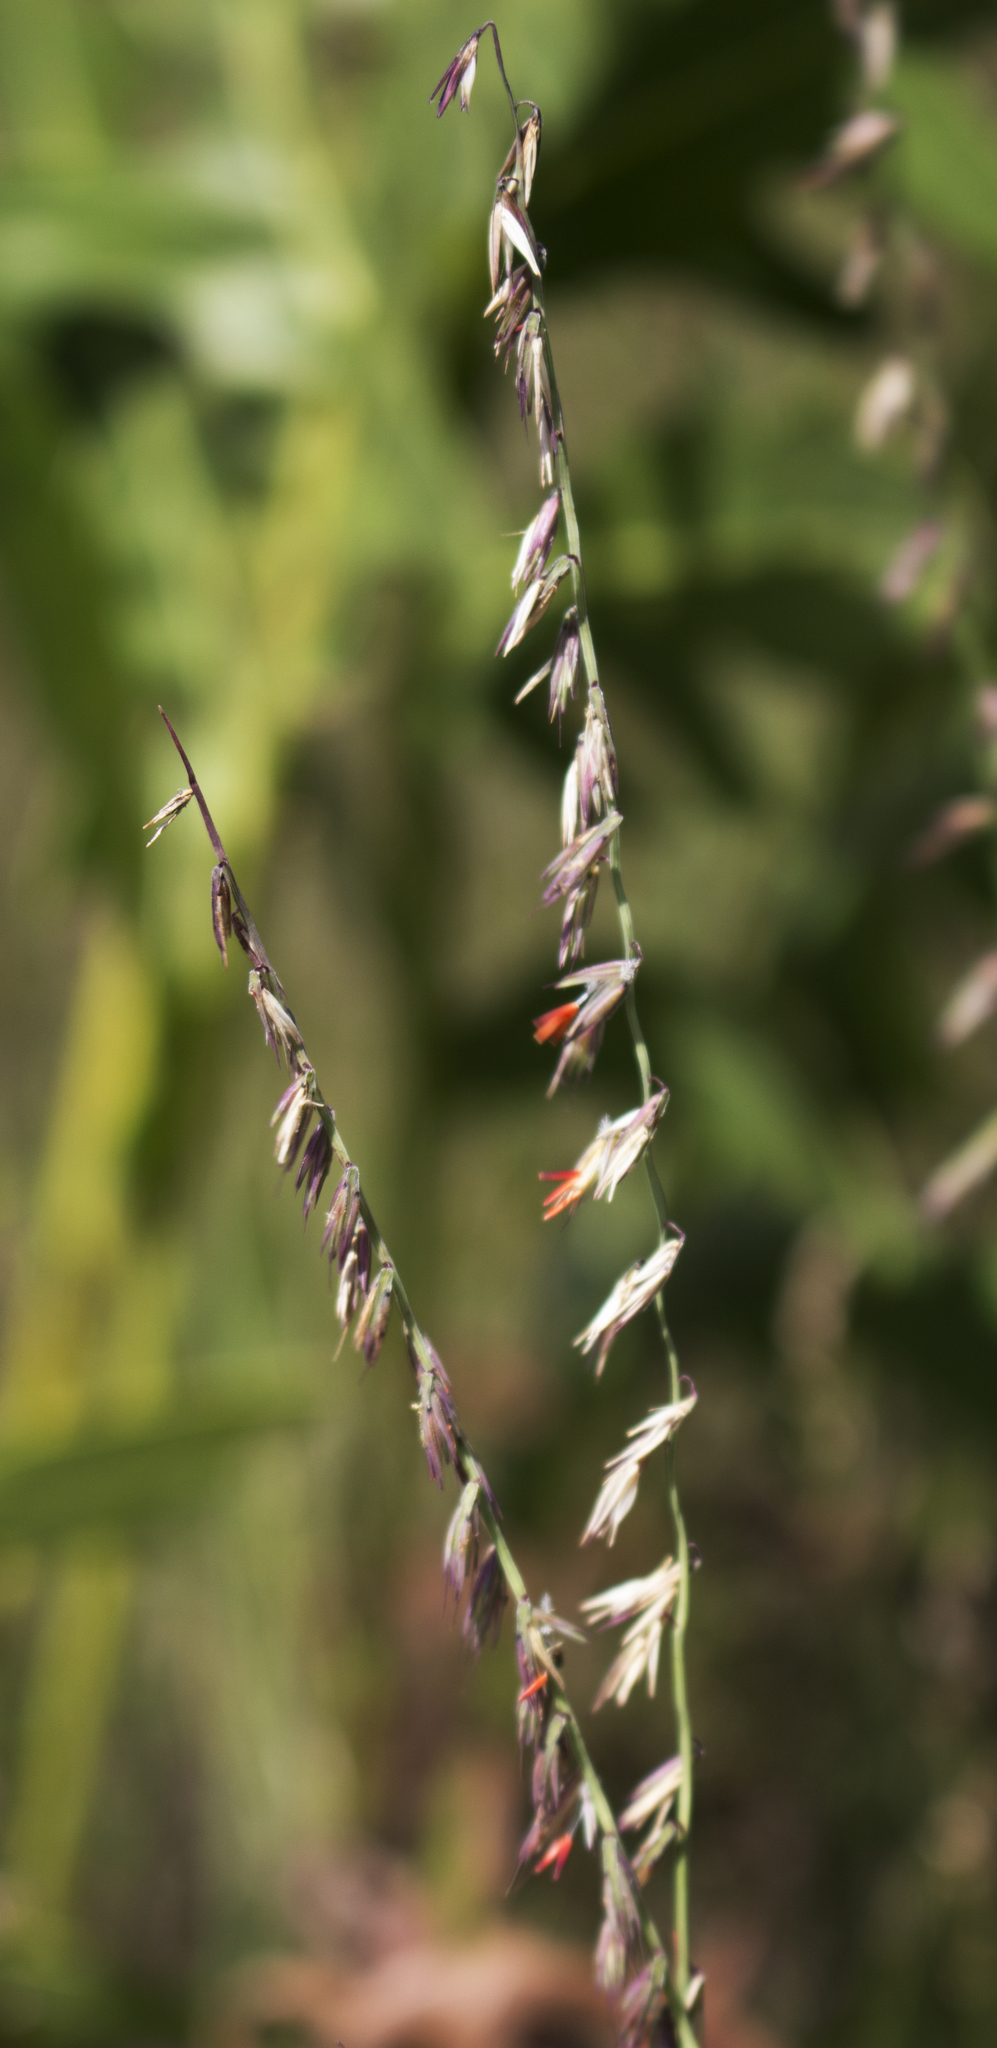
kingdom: Plantae
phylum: Tracheophyta
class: Liliopsida
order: Poales
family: Poaceae
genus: Bouteloua
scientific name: Bouteloua curtipendula
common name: Side-oats grama
